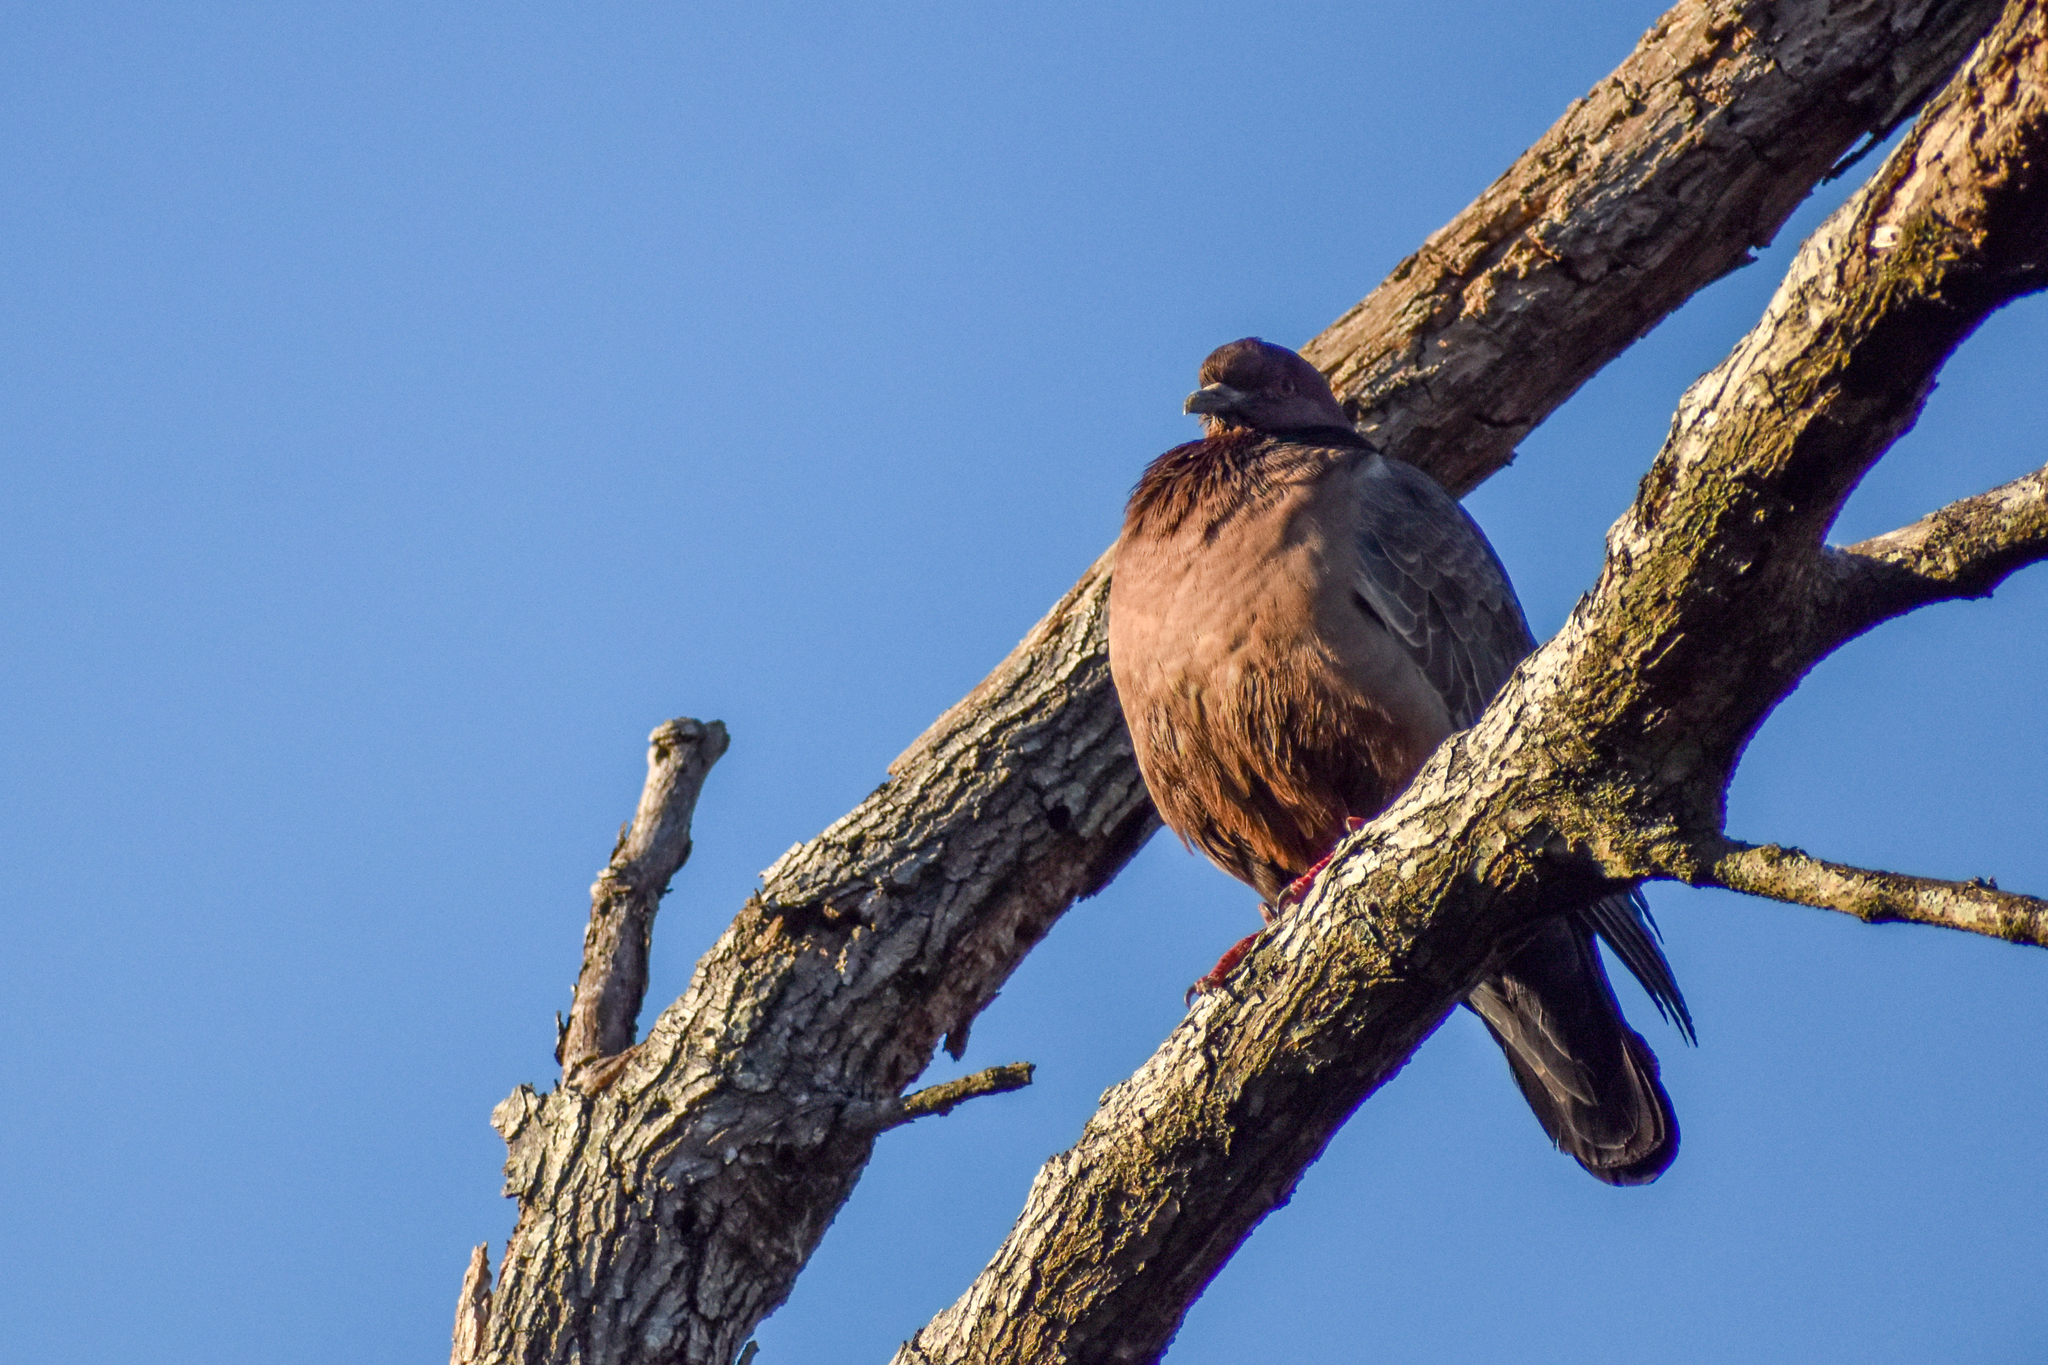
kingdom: Animalia
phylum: Chordata
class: Aves
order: Columbiformes
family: Columbidae
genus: Patagioenas
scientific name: Patagioenas picazuro
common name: Picazuro pigeon
